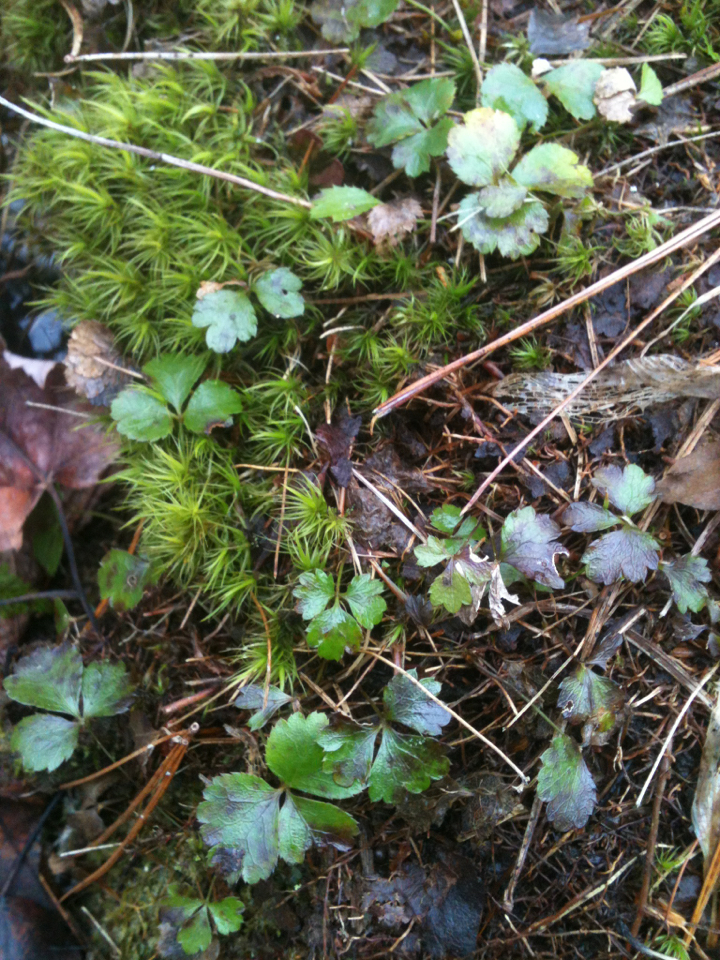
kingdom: Plantae
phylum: Tracheophyta
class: Magnoliopsida
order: Ranunculales
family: Ranunculaceae
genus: Coptis
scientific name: Coptis trifolia
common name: Canker-root
